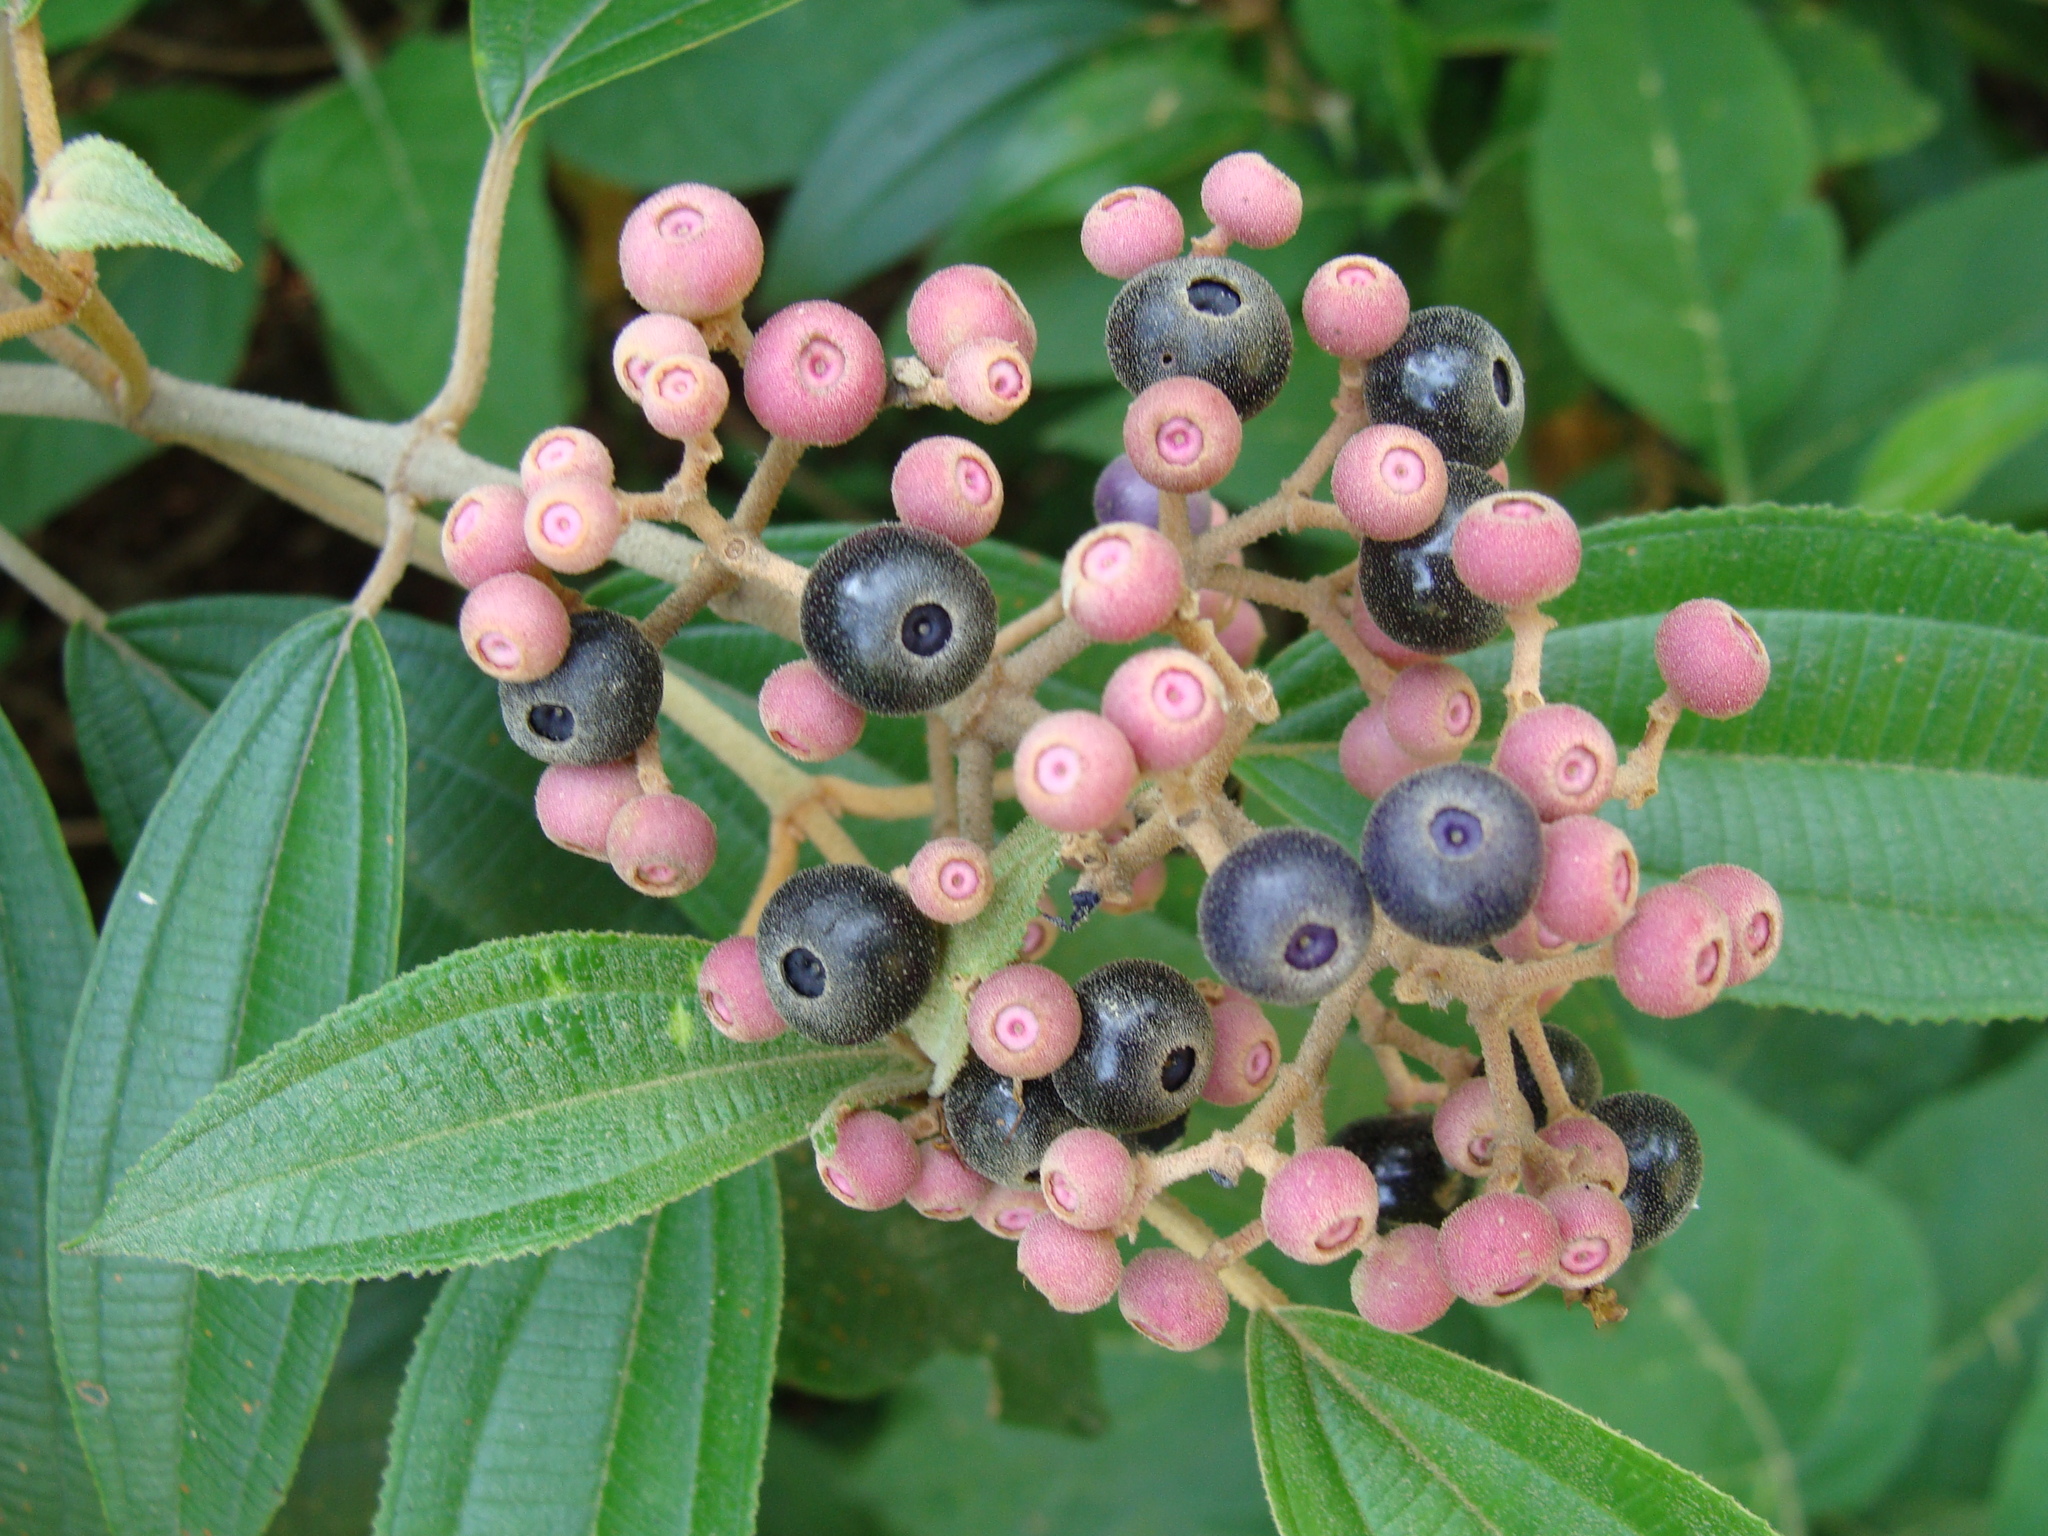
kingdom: Plantae
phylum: Tracheophyta
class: Magnoliopsida
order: Myrtales
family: Melastomataceae
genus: Miconia
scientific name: Miconia xalapensis
